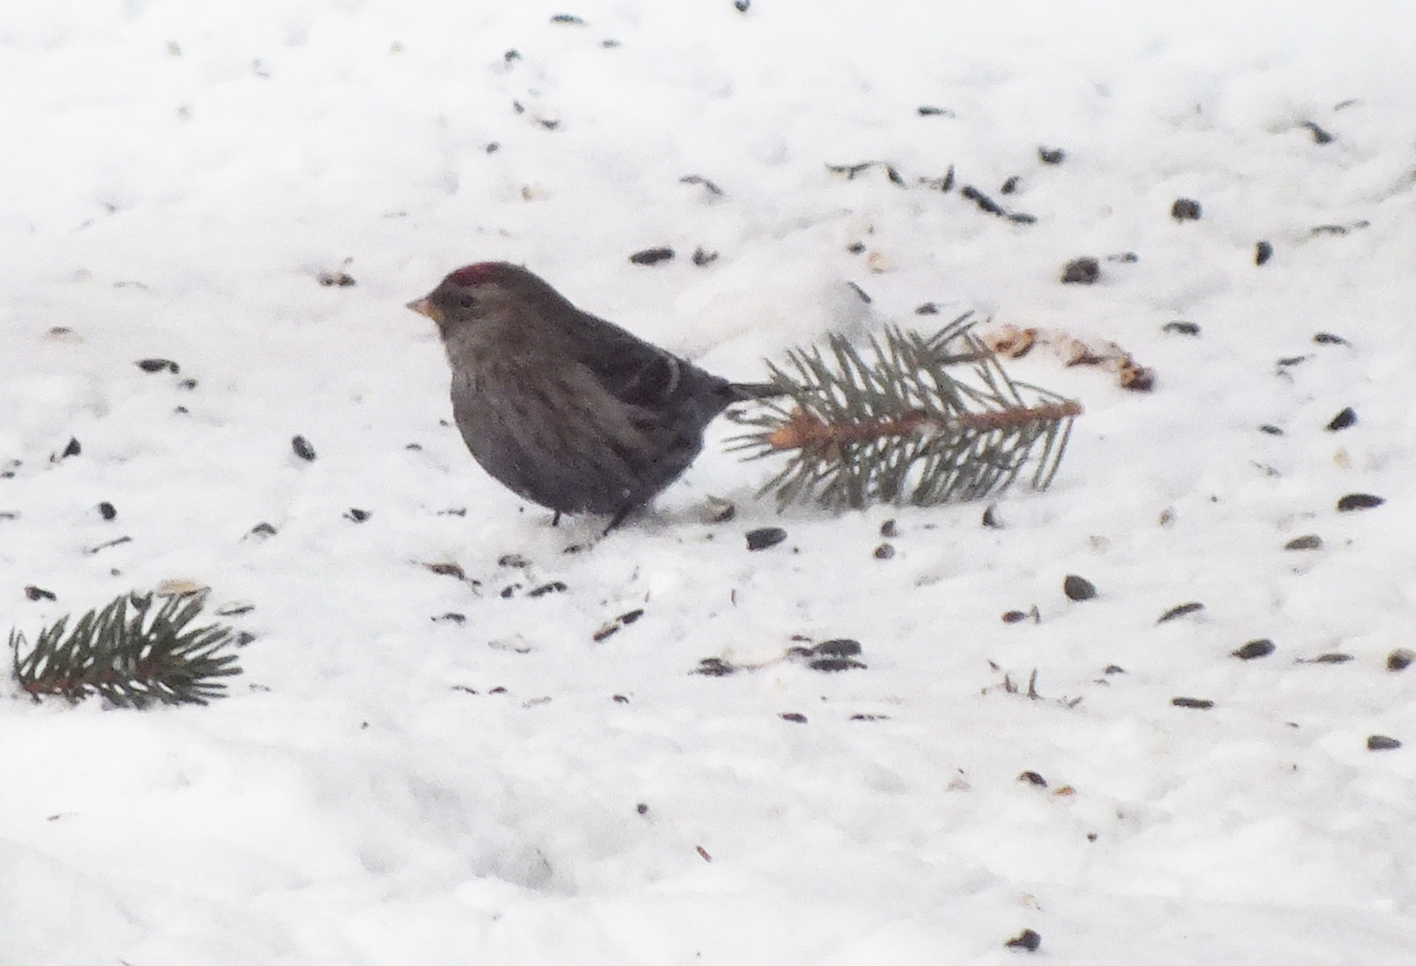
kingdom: Animalia
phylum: Chordata
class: Aves
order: Passeriformes
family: Fringillidae
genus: Acanthis
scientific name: Acanthis flammea
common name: Common redpoll
